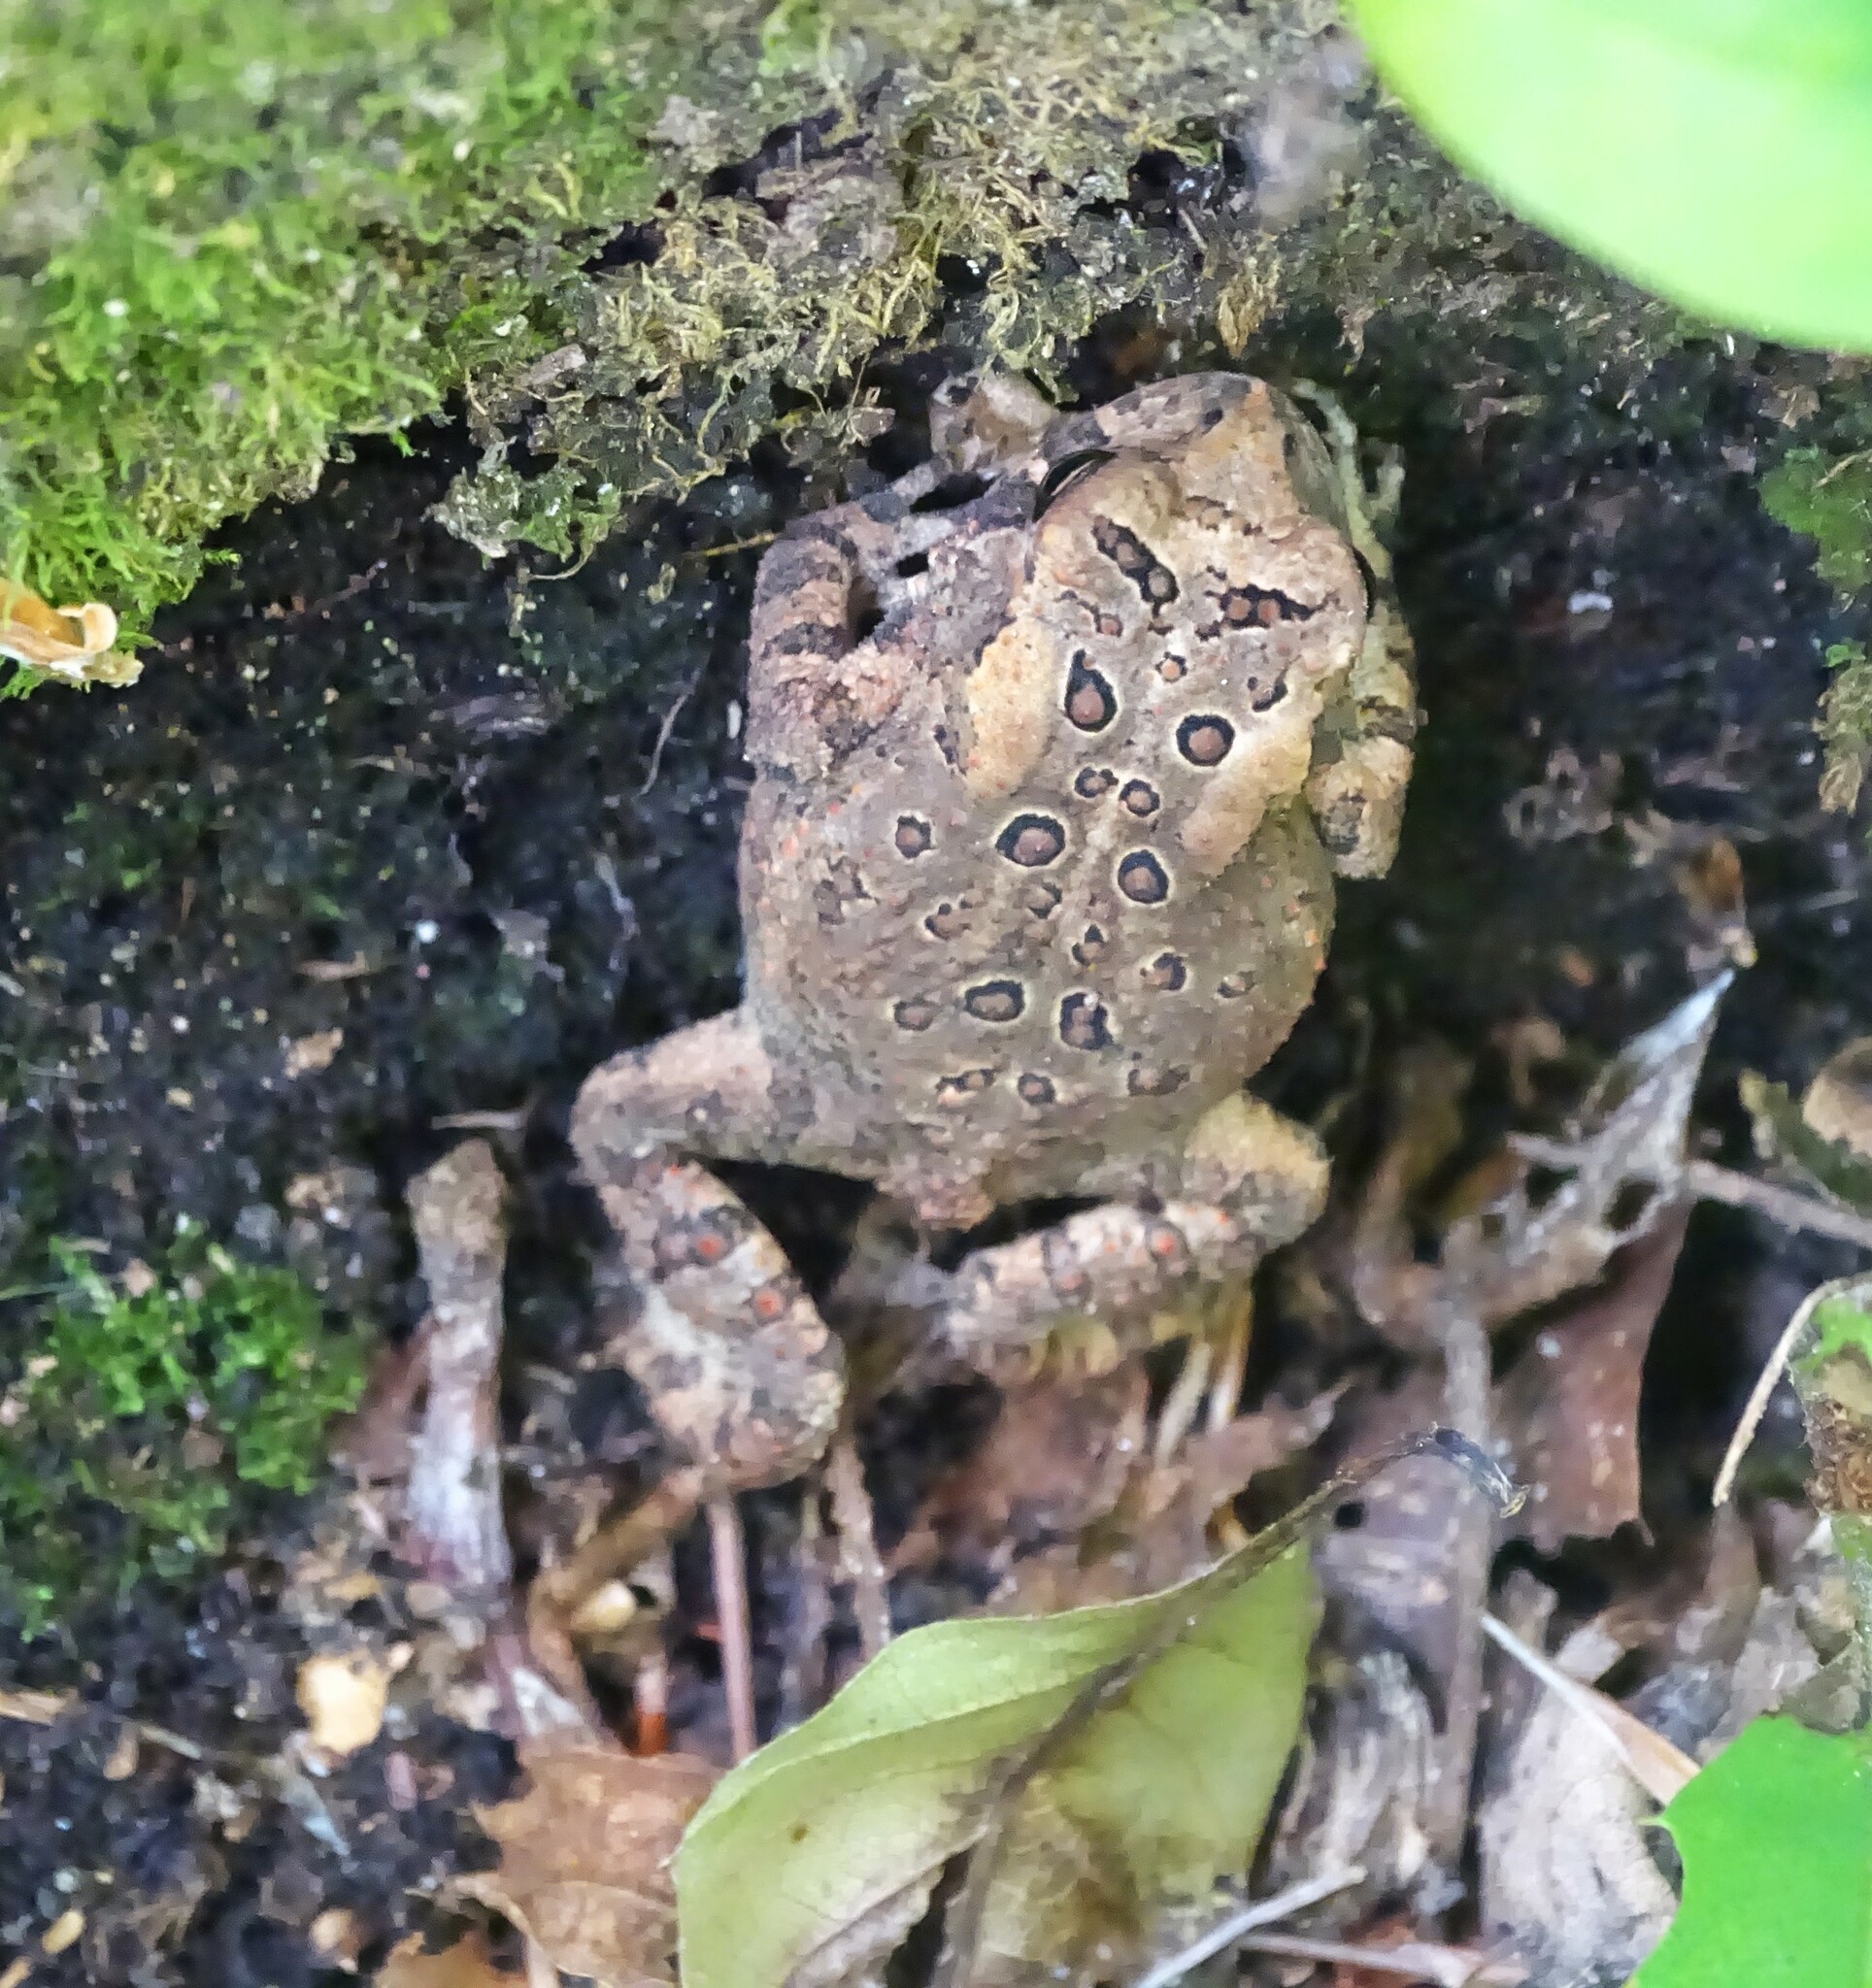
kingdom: Animalia
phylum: Chordata
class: Amphibia
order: Anura
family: Bufonidae
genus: Anaxyrus
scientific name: Anaxyrus americanus
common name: American toad
